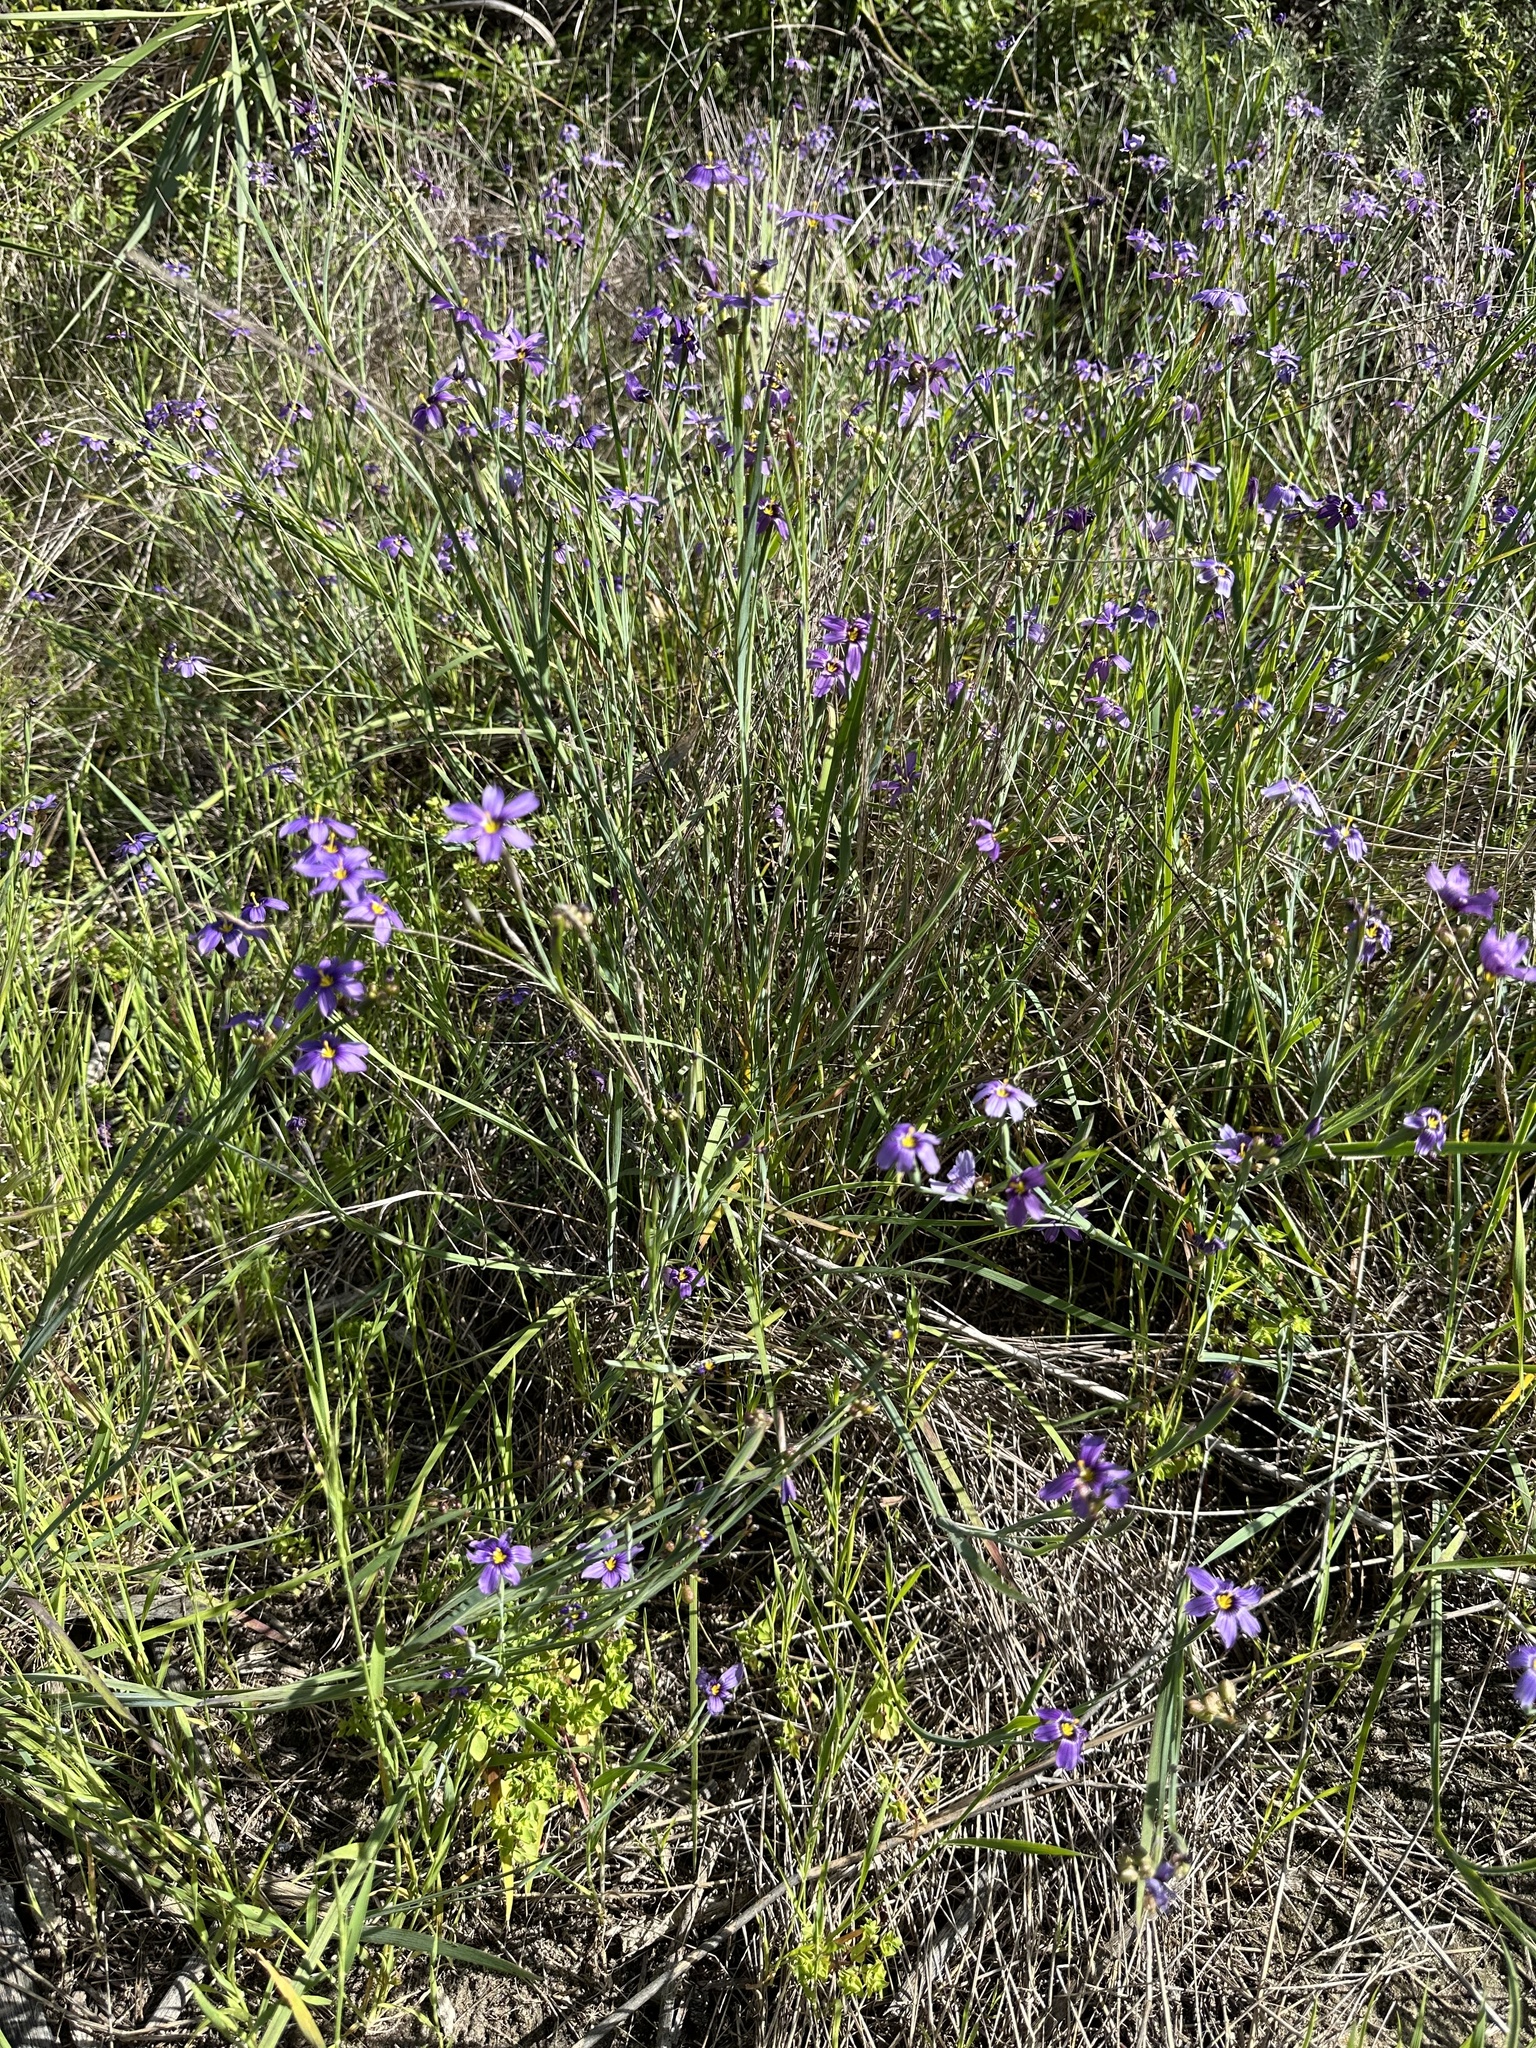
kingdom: Plantae
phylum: Tracheophyta
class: Liliopsida
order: Asparagales
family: Iridaceae
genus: Sisyrinchium
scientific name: Sisyrinchium bellum
